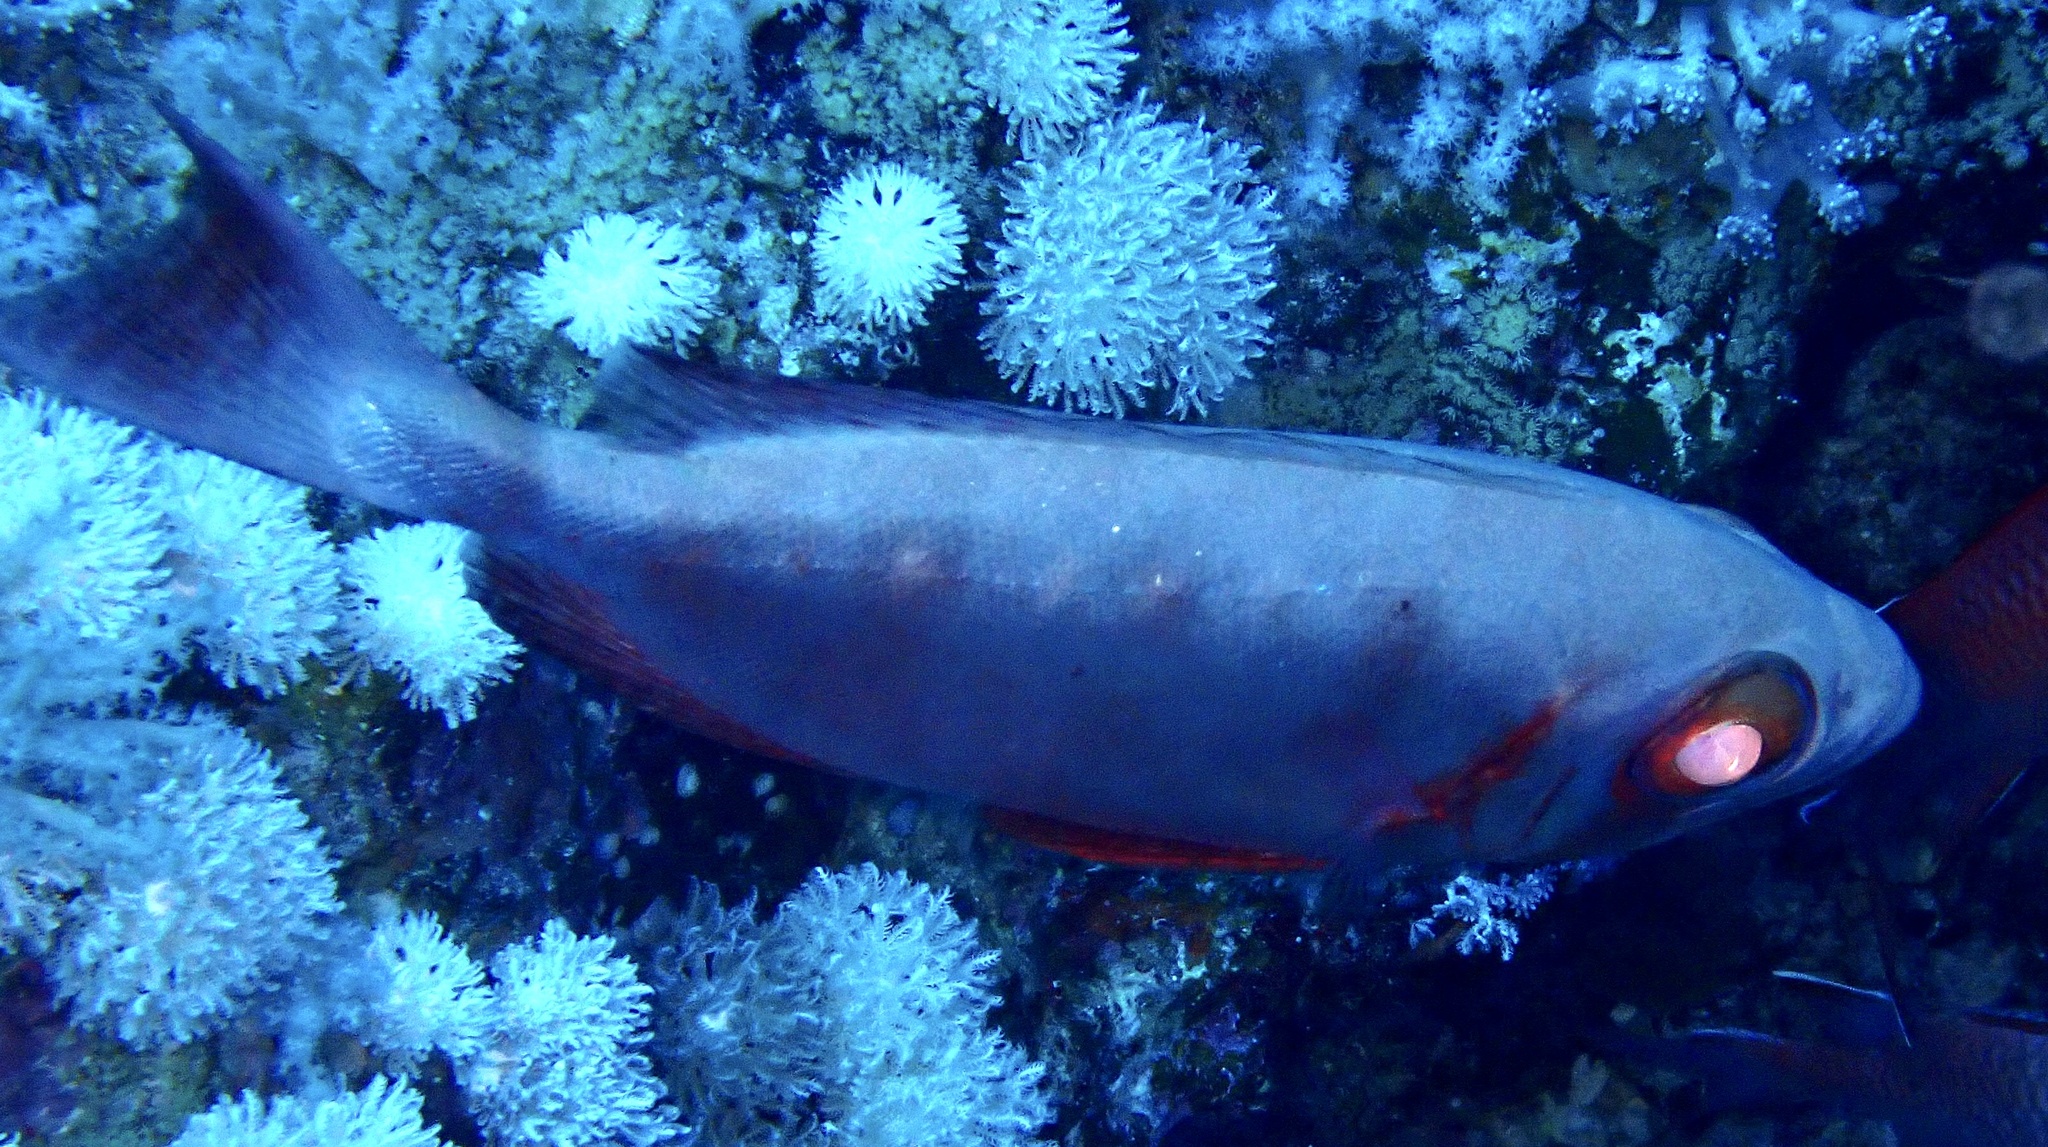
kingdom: Animalia
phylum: Chordata
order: Perciformes
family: Priacanthidae
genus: Priacanthus
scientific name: Priacanthus hamrur
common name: Moontail bullseye
